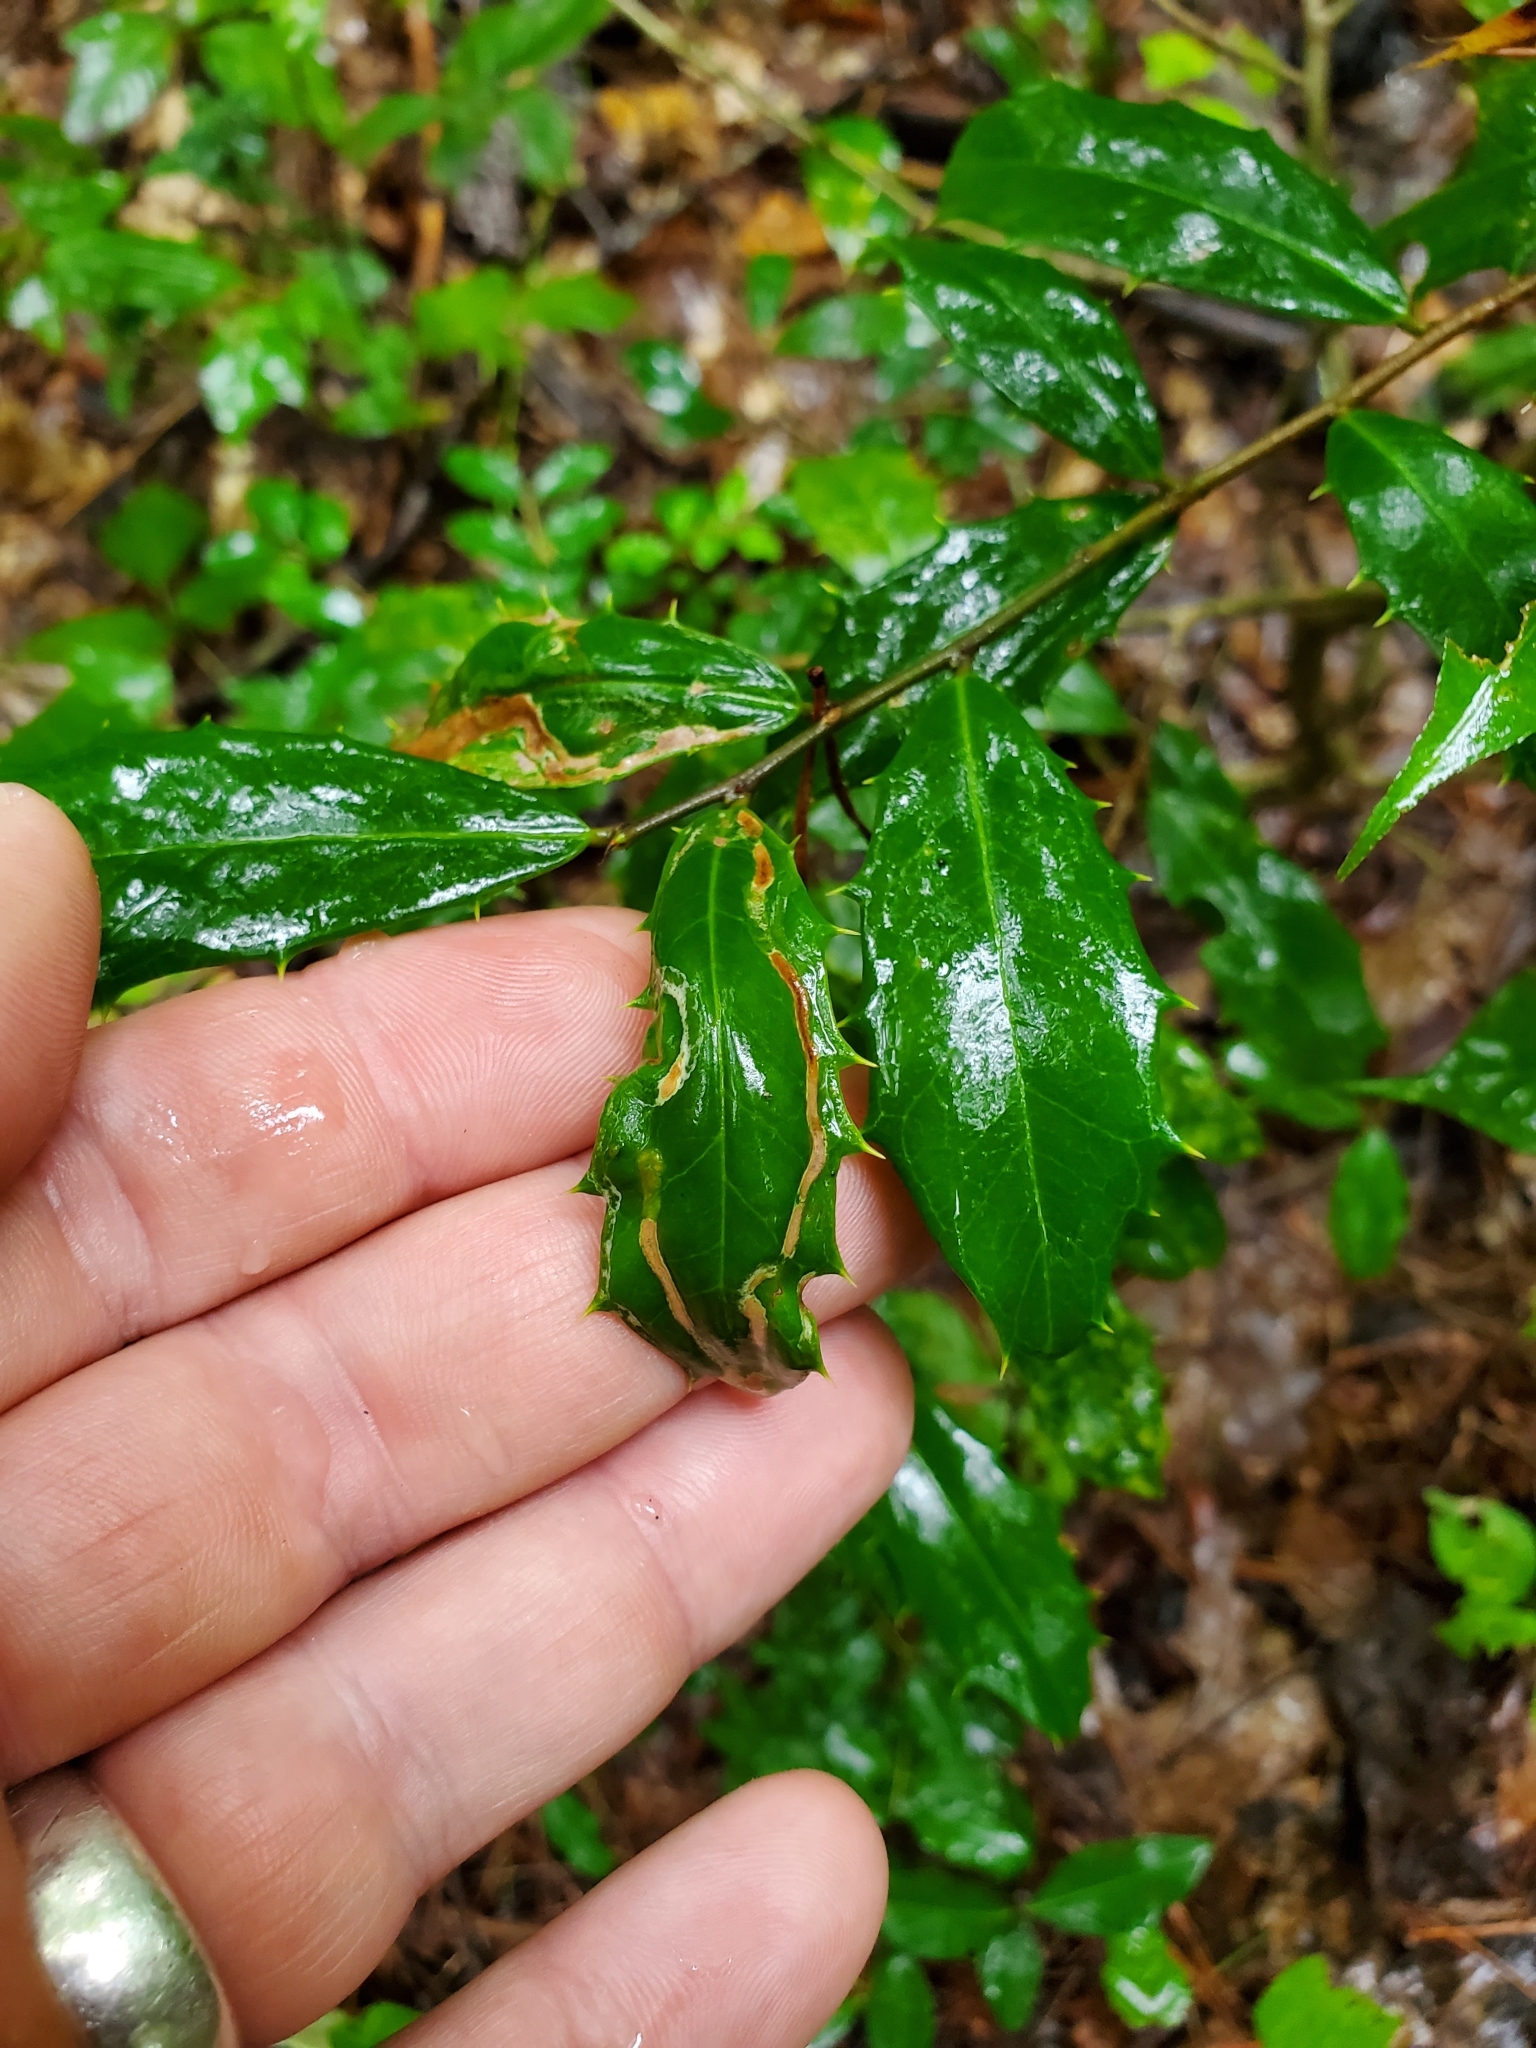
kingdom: Animalia
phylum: Arthropoda
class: Insecta
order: Diptera
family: Agromyzidae
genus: Phytomyza
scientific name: Phytomyza opacae
